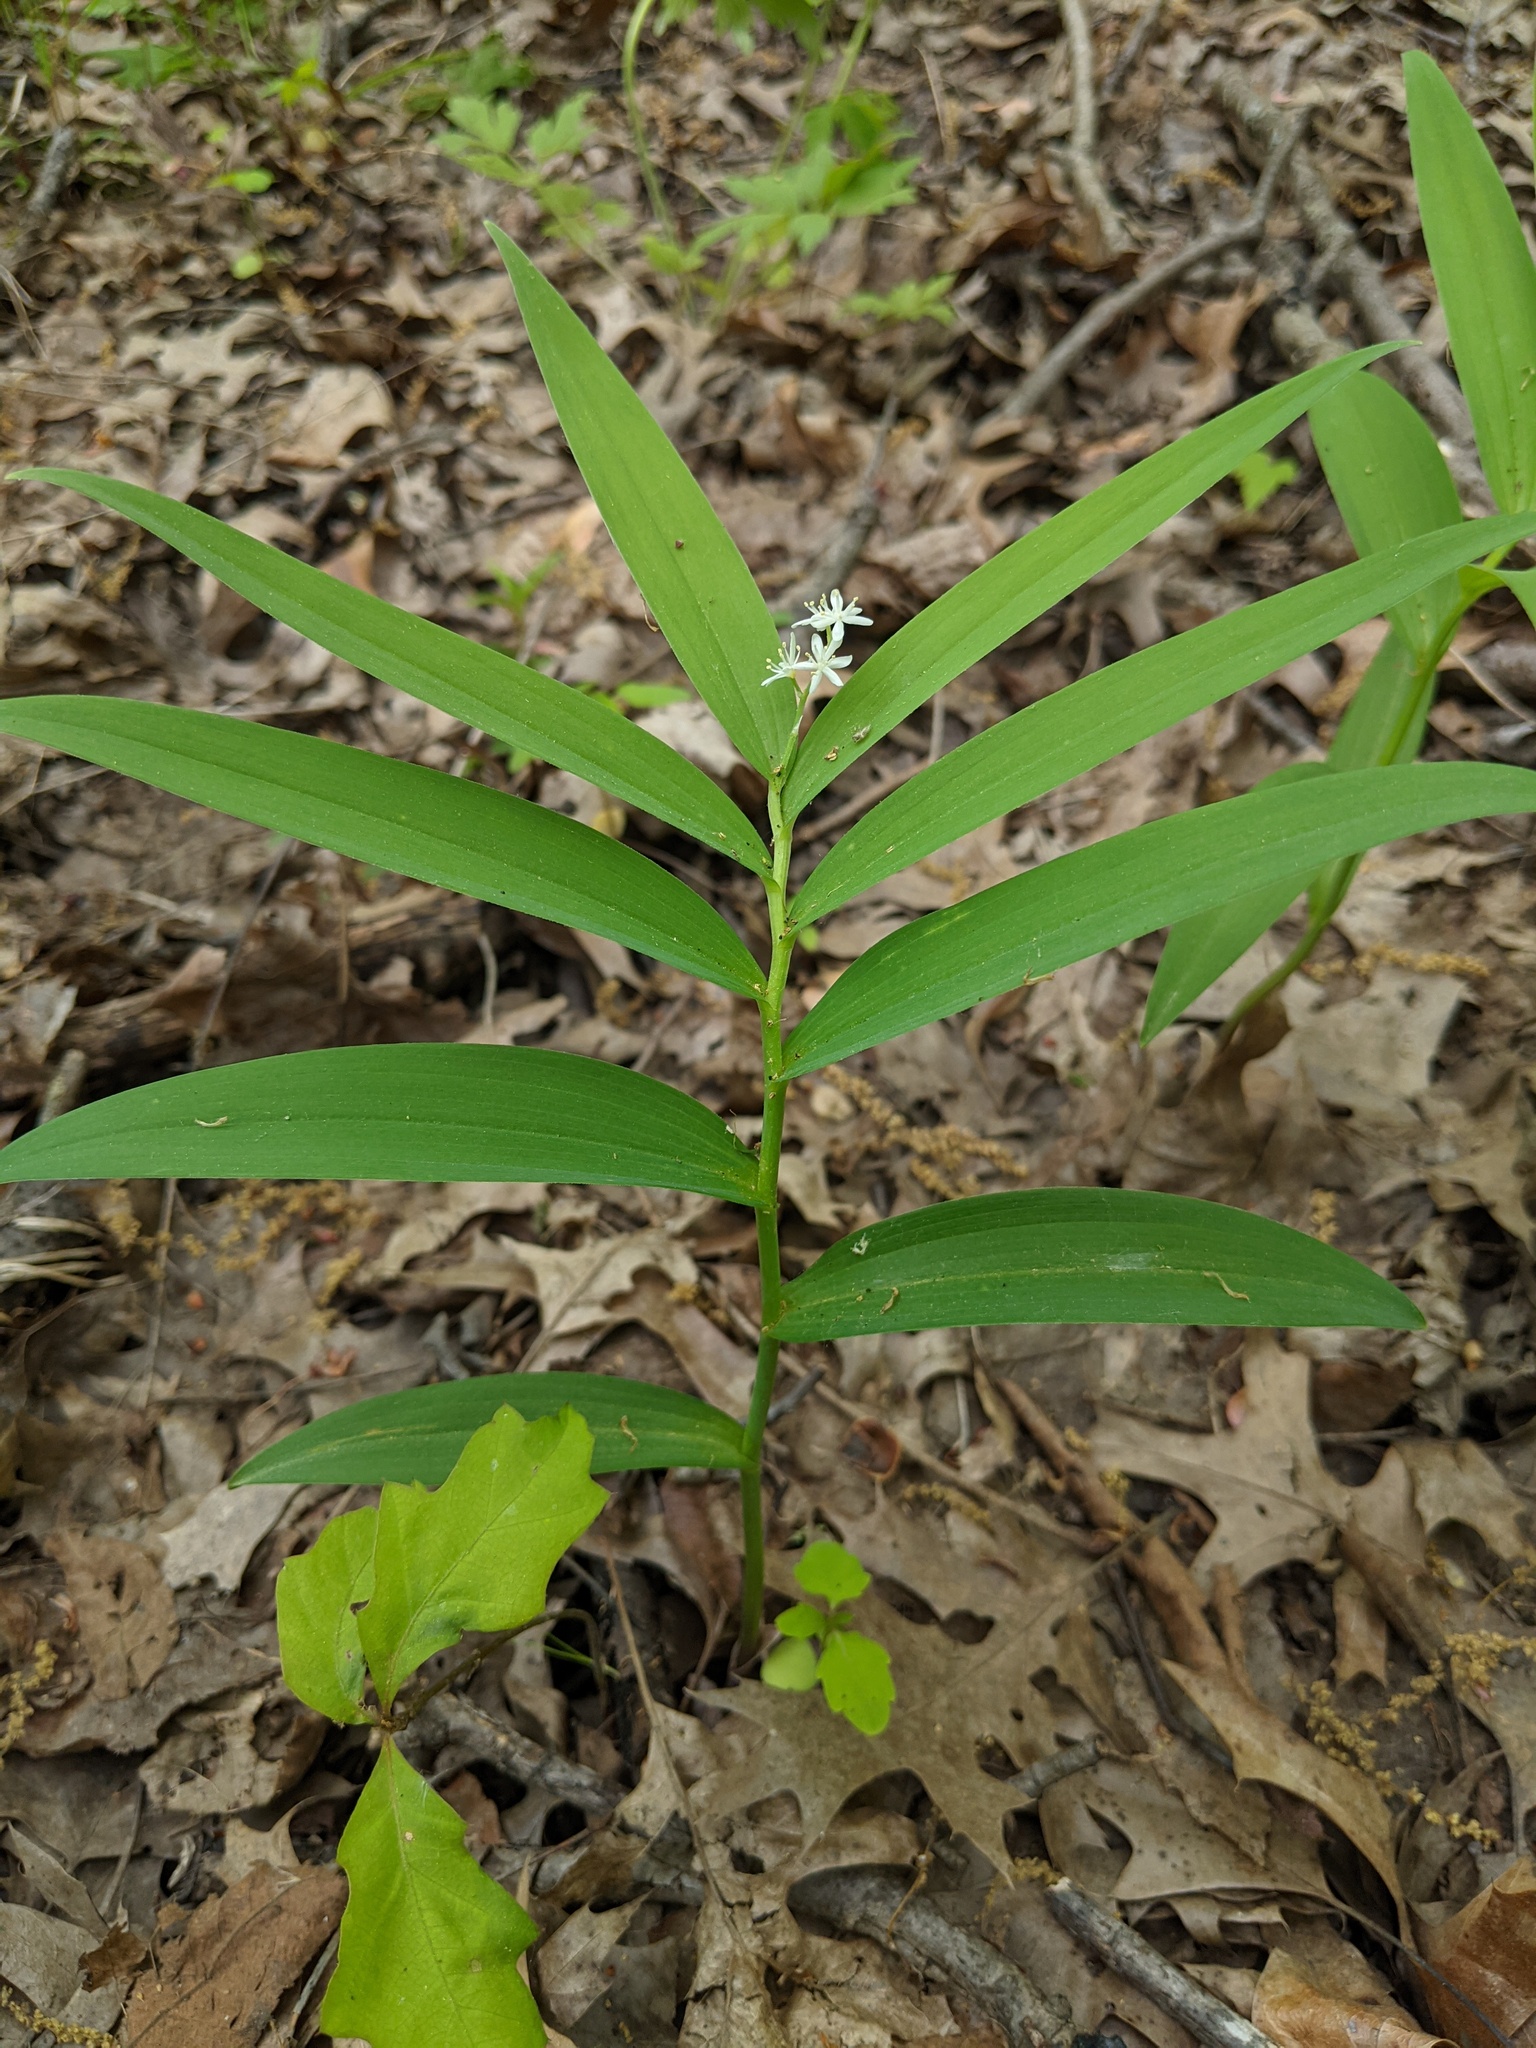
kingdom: Plantae
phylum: Tracheophyta
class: Liliopsida
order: Asparagales
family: Asparagaceae
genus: Maianthemum
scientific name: Maianthemum stellatum
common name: Little false solomon's seal
